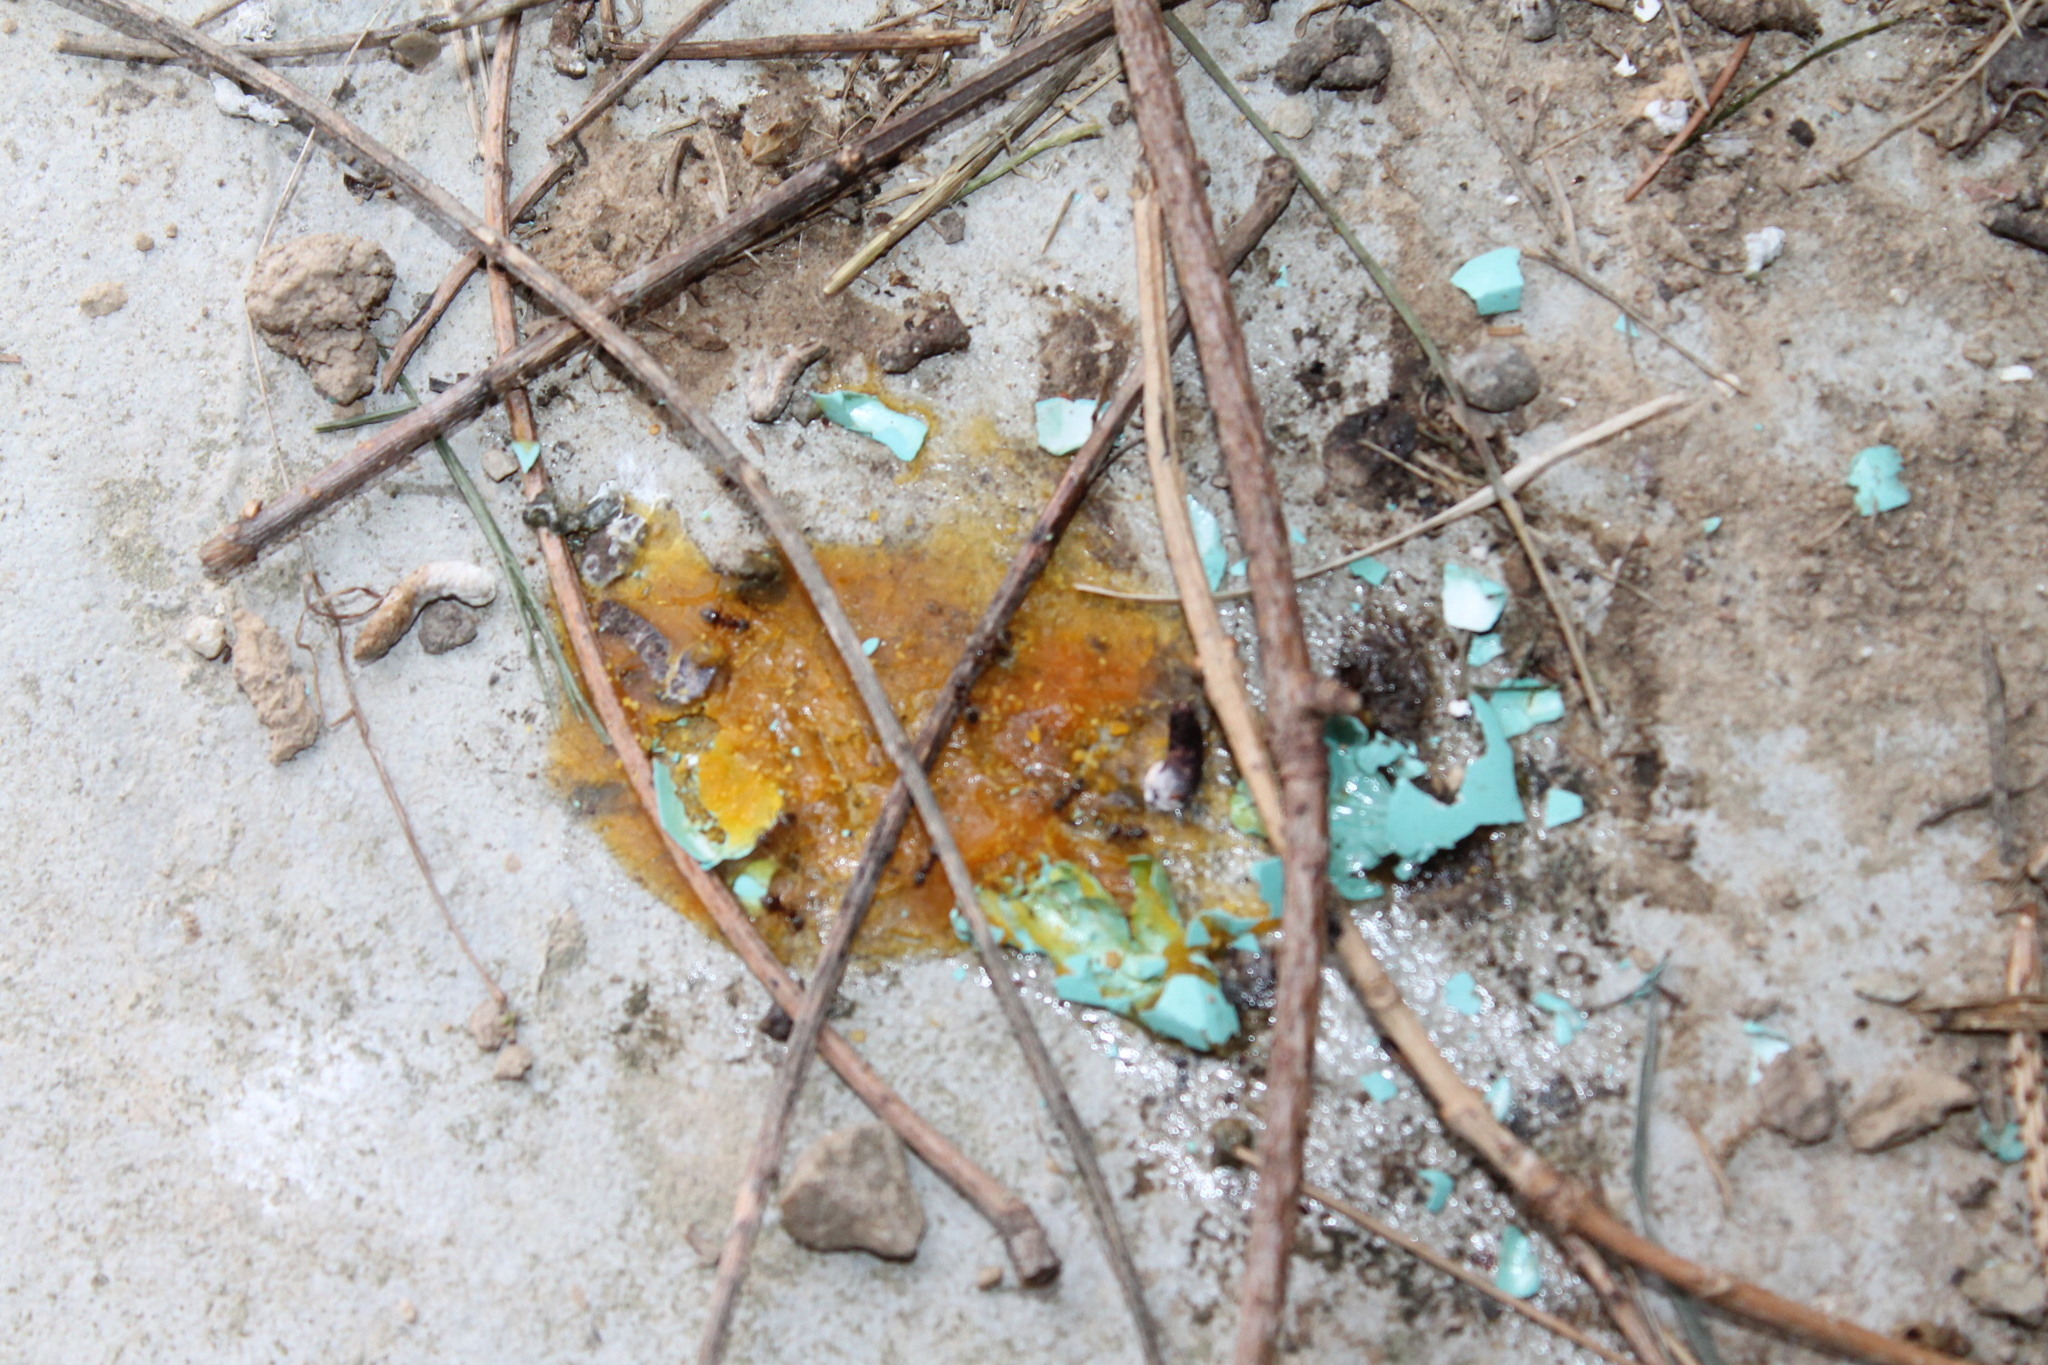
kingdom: Animalia
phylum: Chordata
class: Aves
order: Passeriformes
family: Turdidae
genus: Turdus
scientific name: Turdus migratorius
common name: American robin
